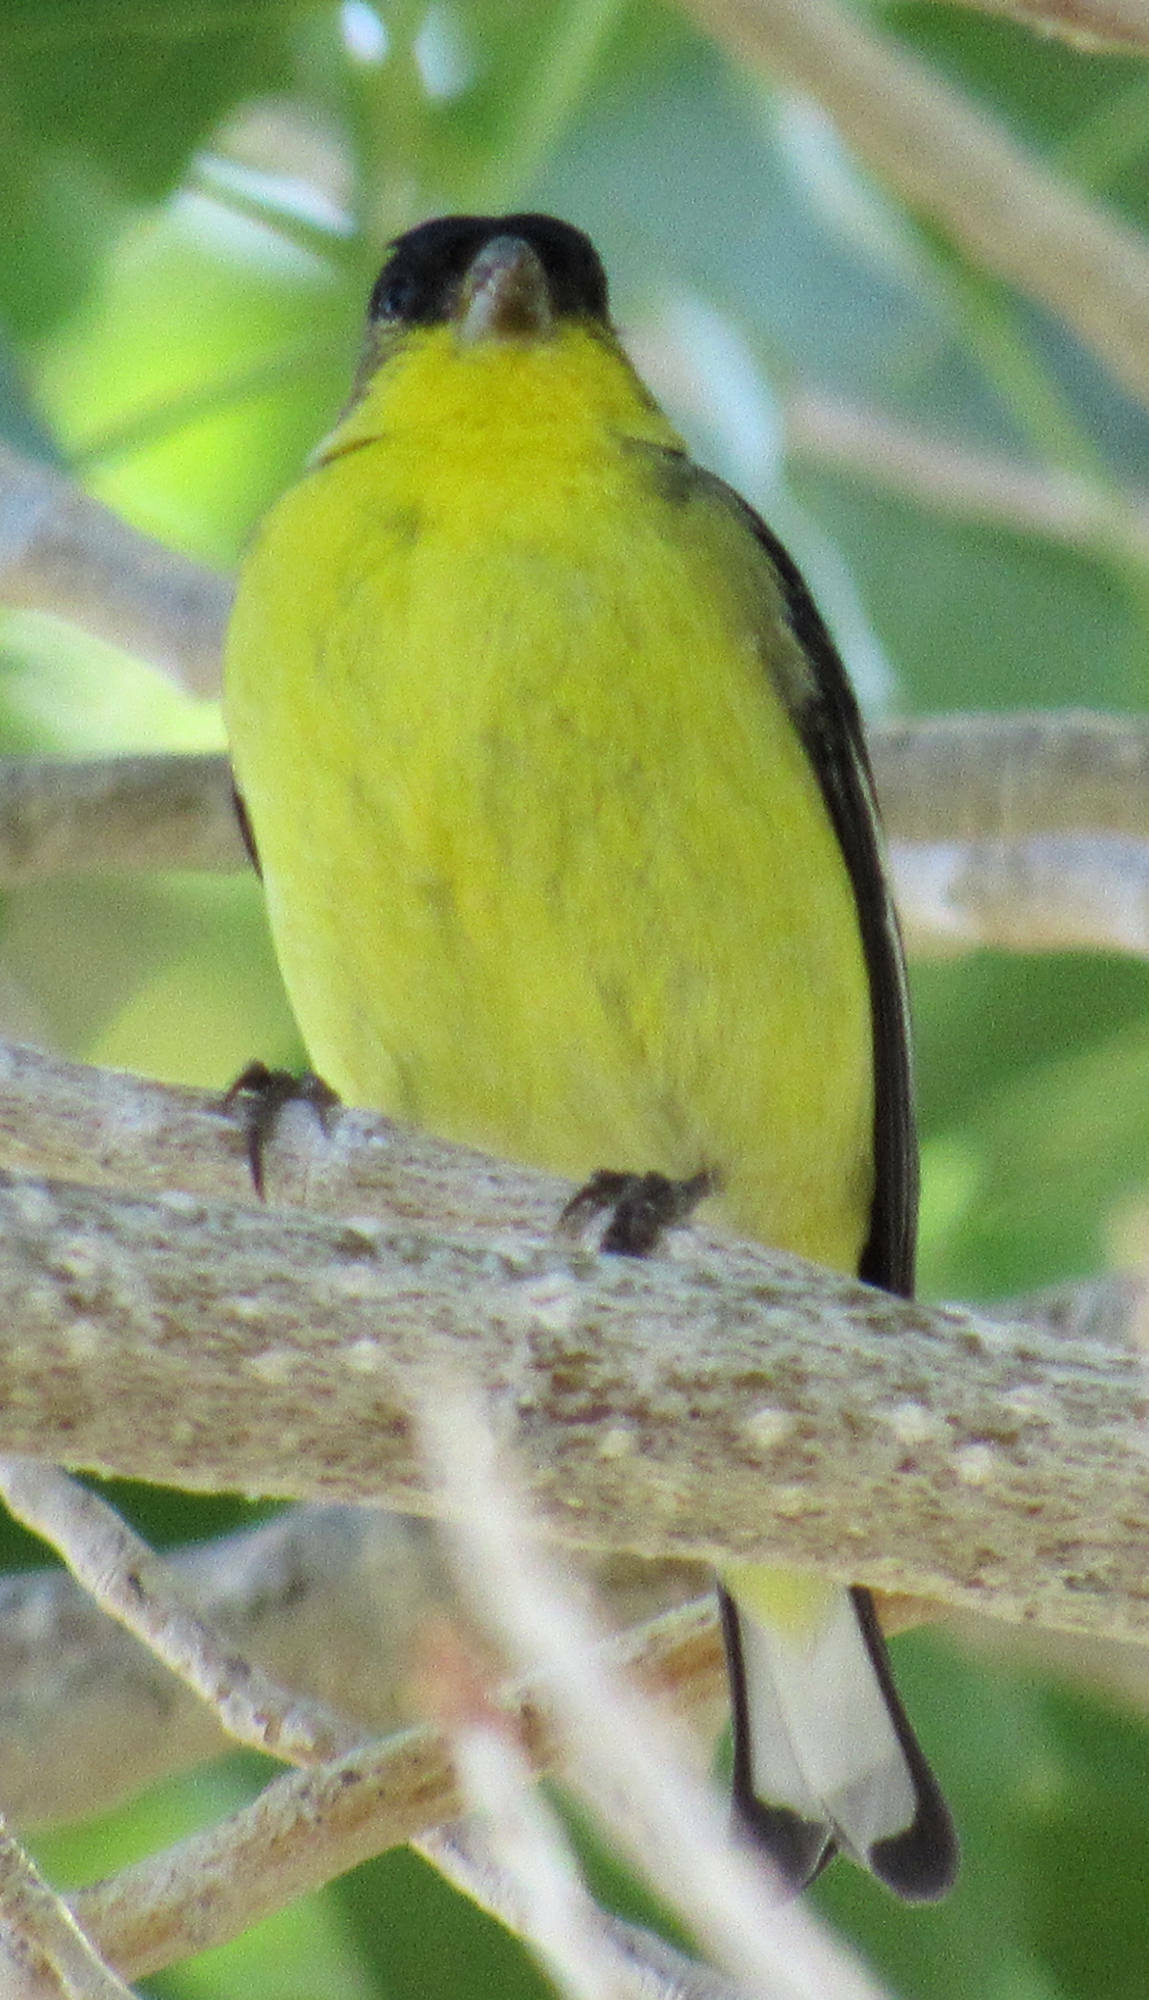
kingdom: Animalia
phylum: Chordata
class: Aves
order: Passeriformes
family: Fringillidae
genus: Spinus
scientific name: Spinus psaltria
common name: Lesser goldfinch
